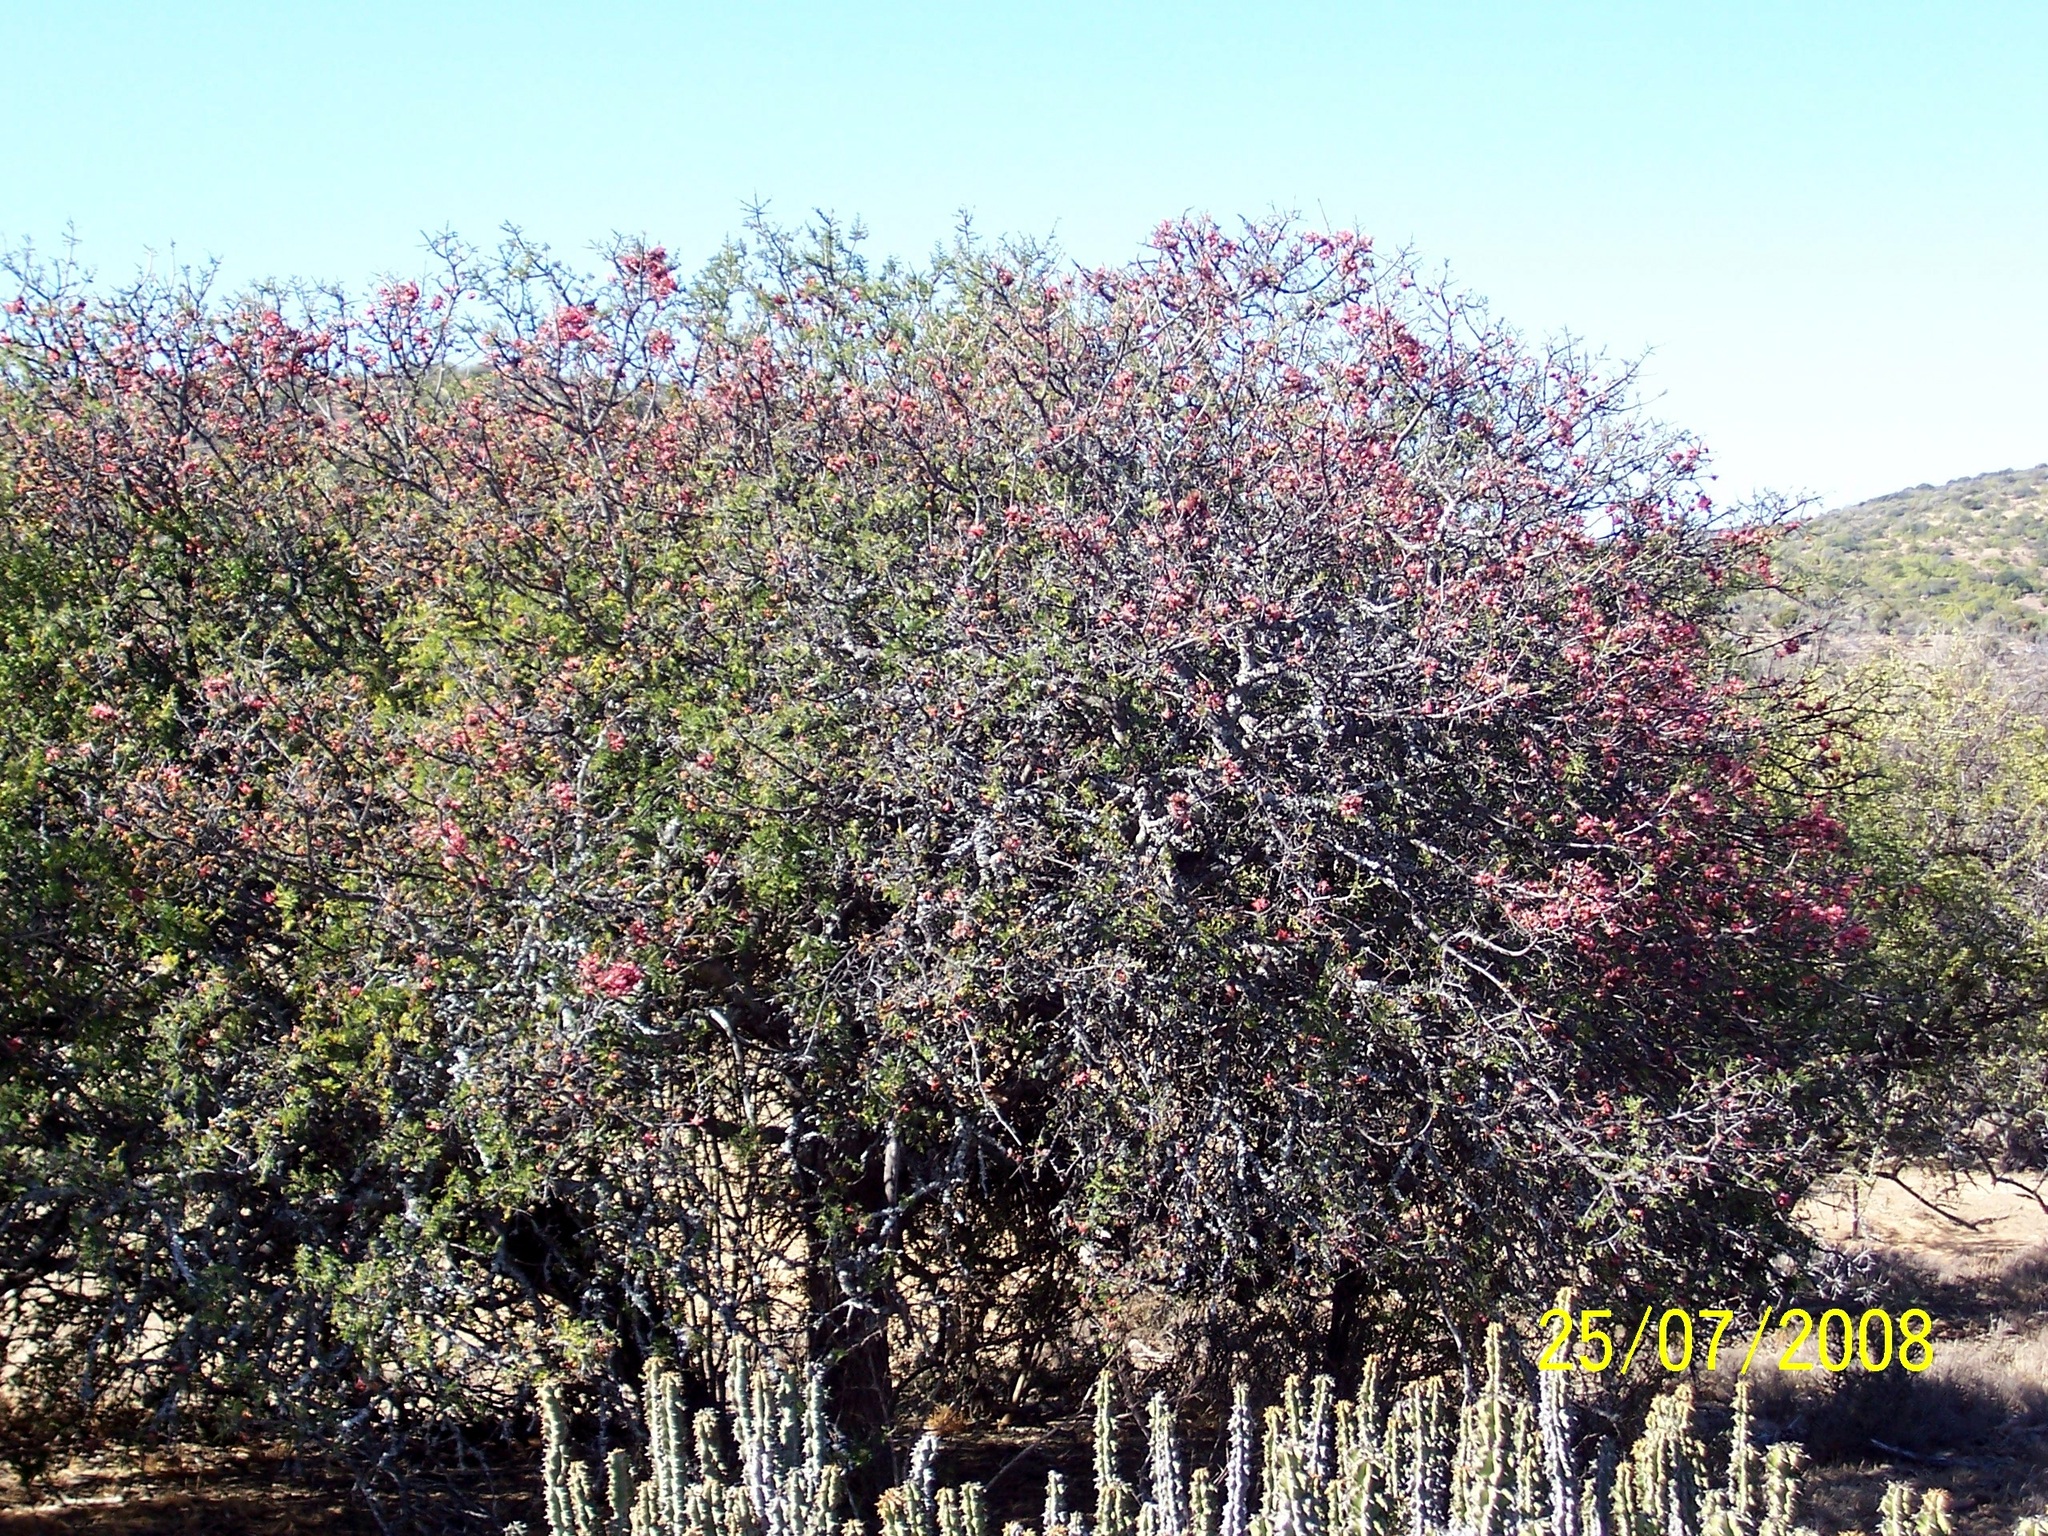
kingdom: Plantae
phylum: Tracheophyta
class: Magnoliopsida
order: Fabales
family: Fabaceae
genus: Schotia
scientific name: Schotia afra
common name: Hottentot's bean
